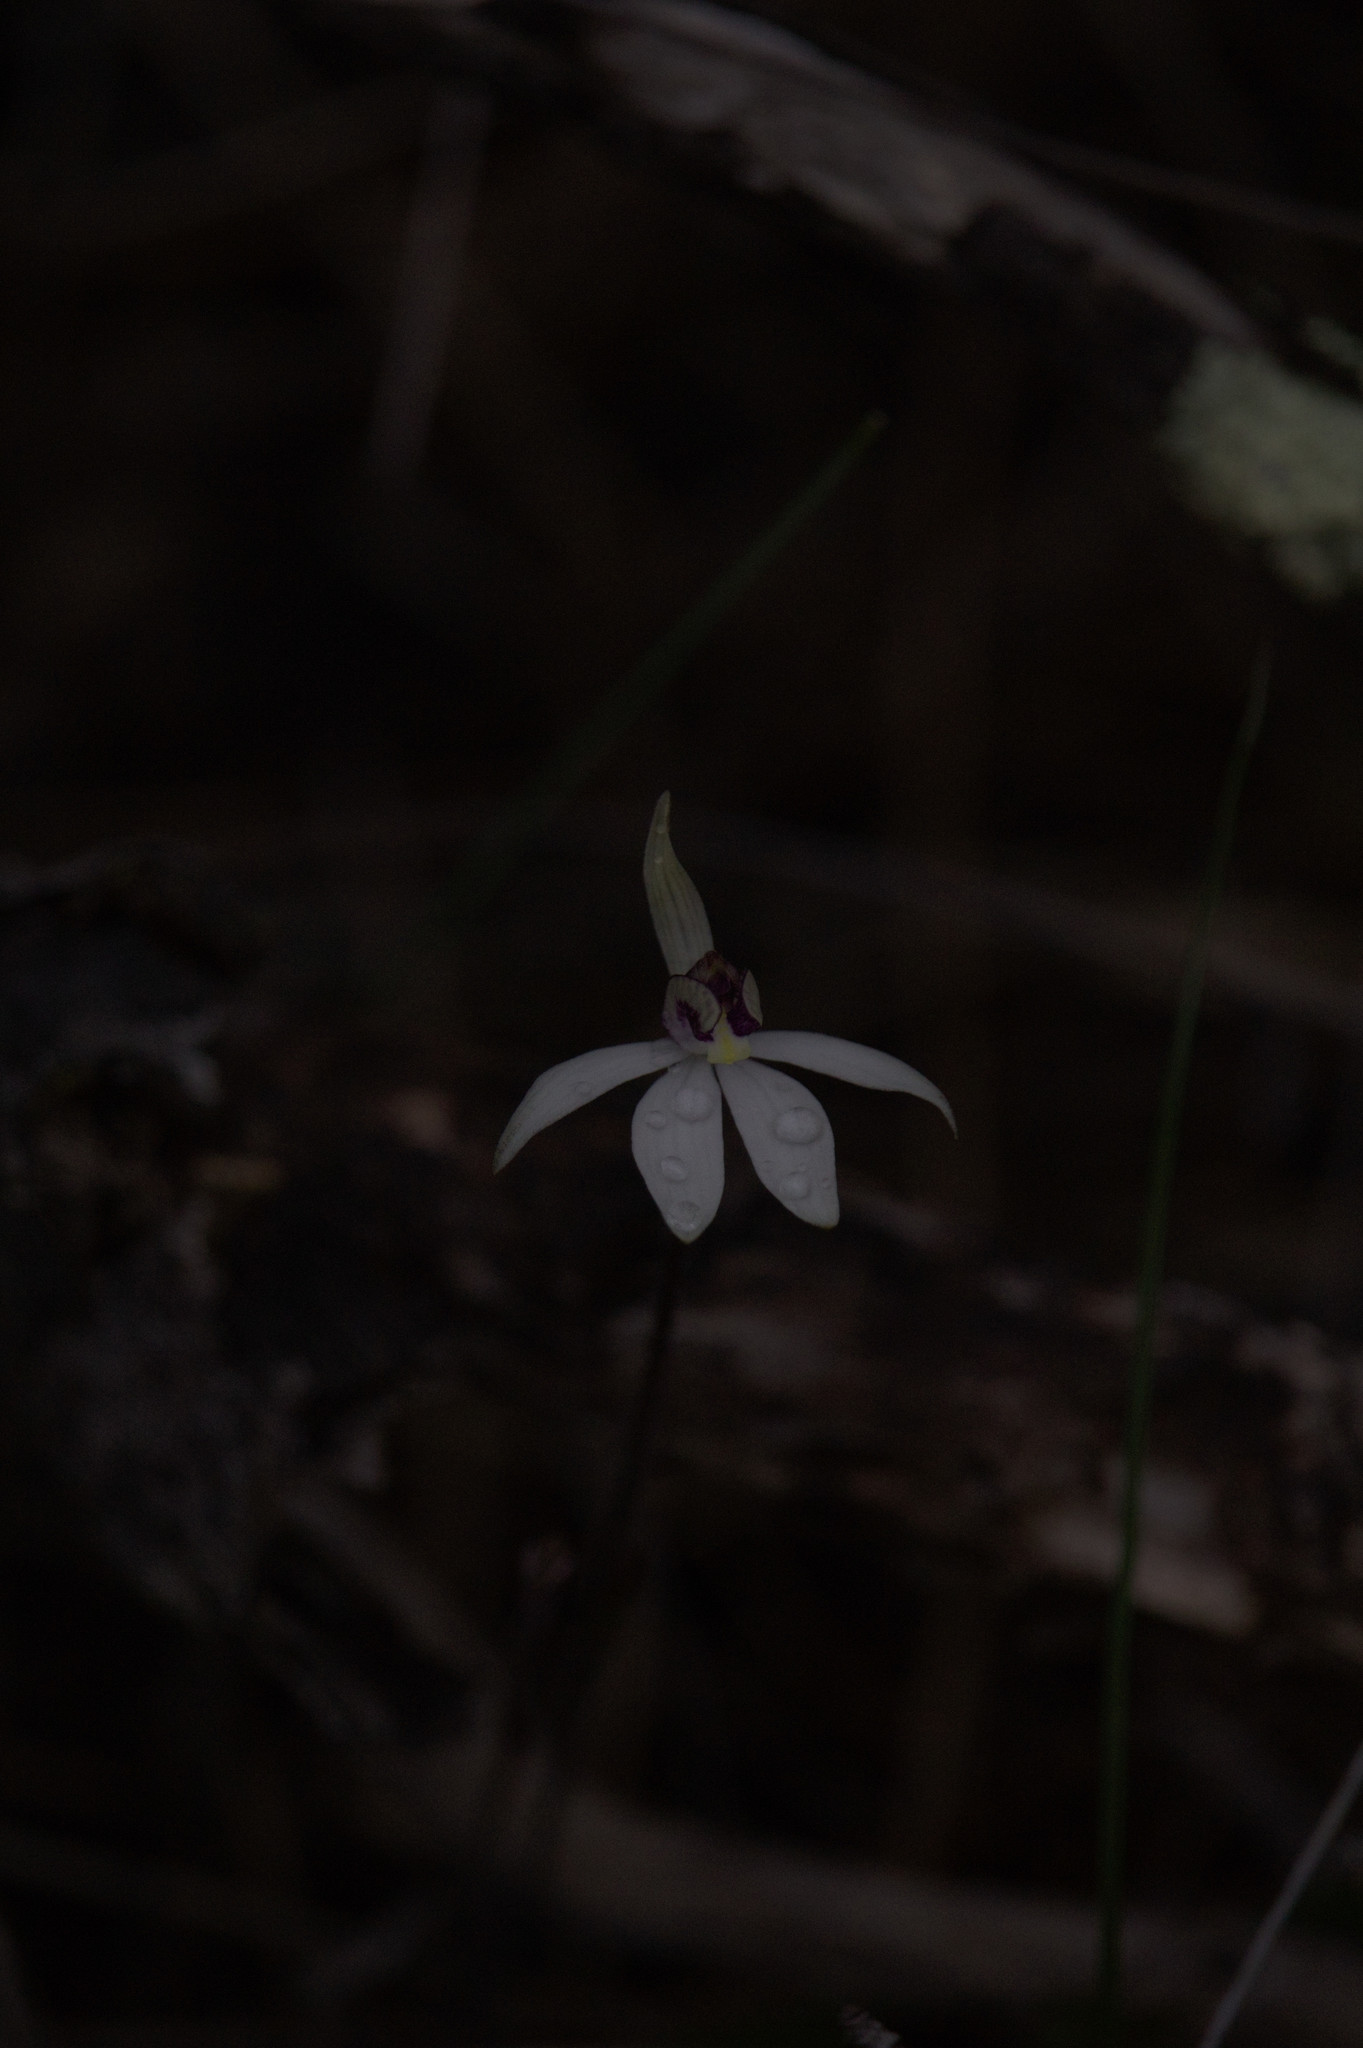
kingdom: Plantae
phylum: Tracheophyta
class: Liliopsida
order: Asparagales
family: Orchidaceae
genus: Caladenia
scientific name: Caladenia saccharata
